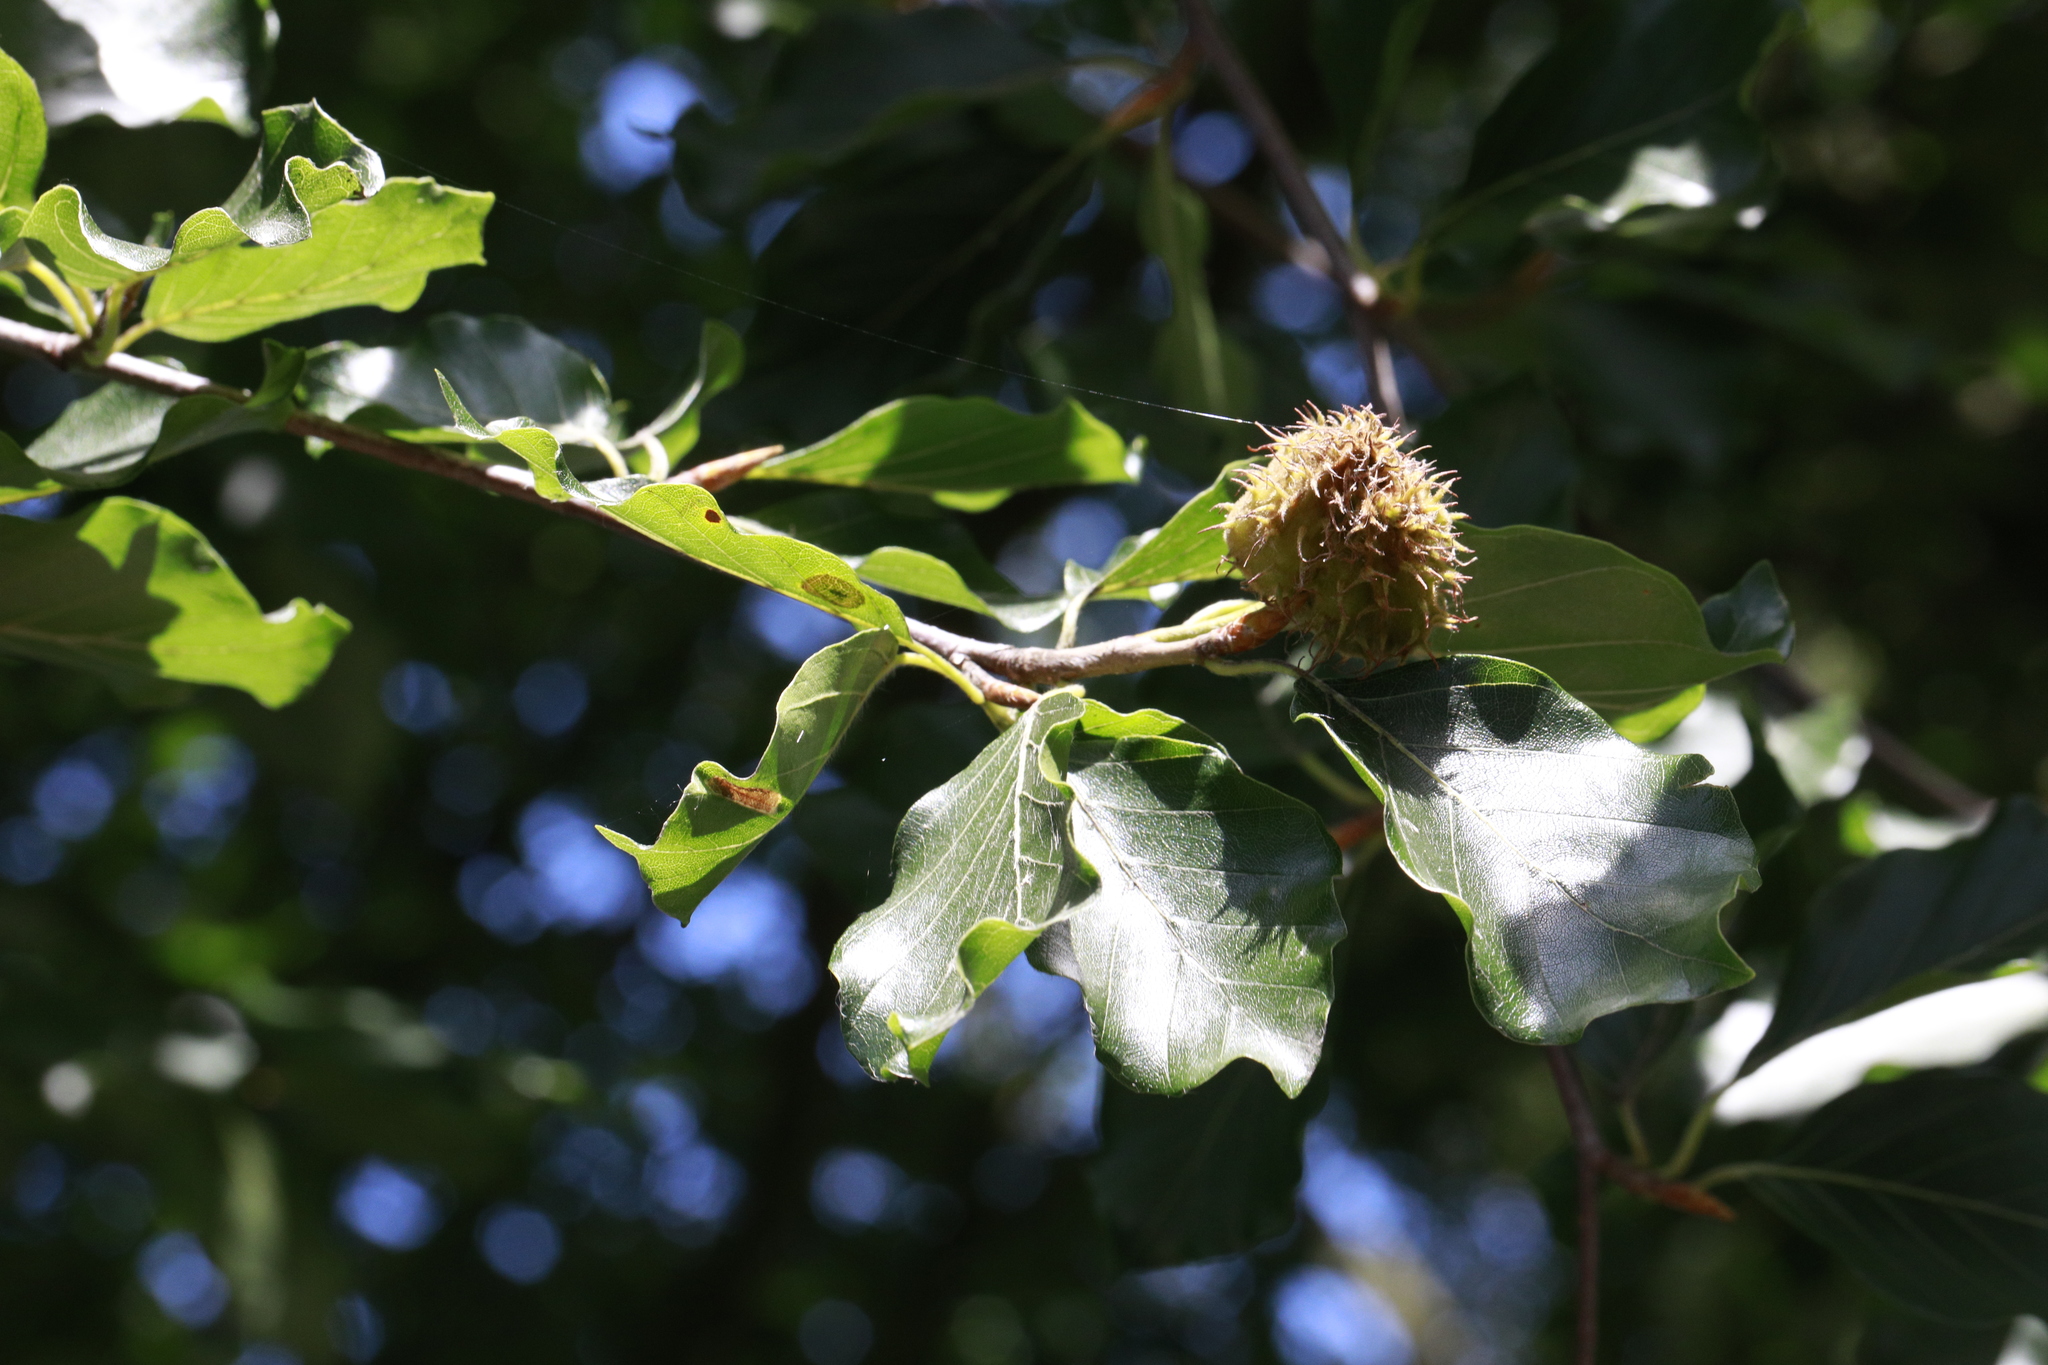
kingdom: Plantae
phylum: Tracheophyta
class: Magnoliopsida
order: Fagales
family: Fagaceae
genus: Fagus
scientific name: Fagus sylvatica
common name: Beech
